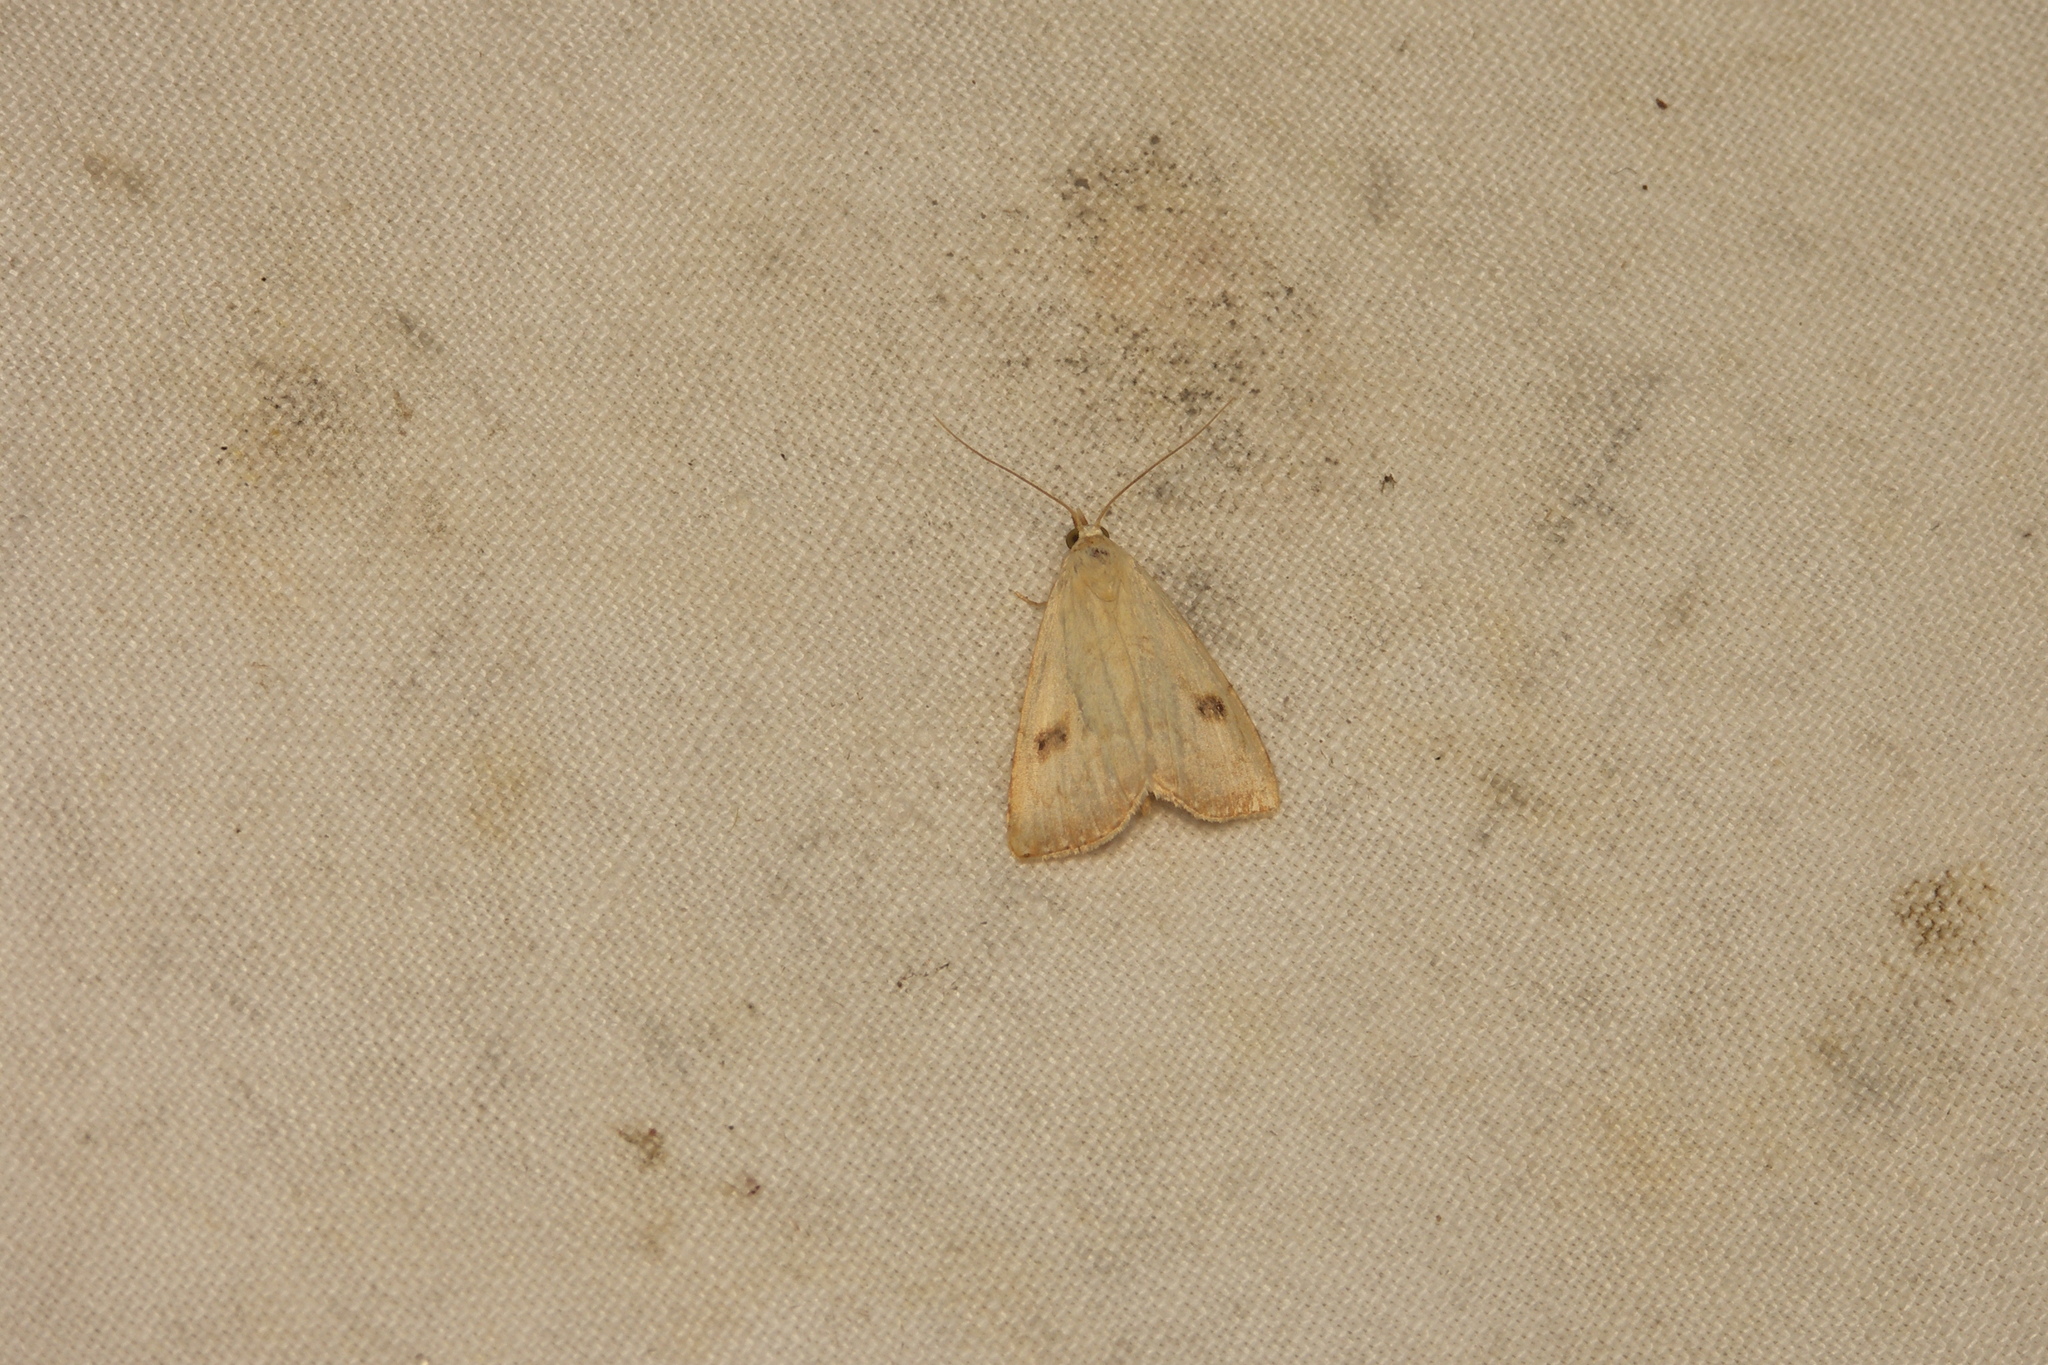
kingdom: Animalia
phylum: Arthropoda
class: Insecta
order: Lepidoptera
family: Erebidae
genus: Rivula
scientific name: Rivula sericealis
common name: Straw dot
